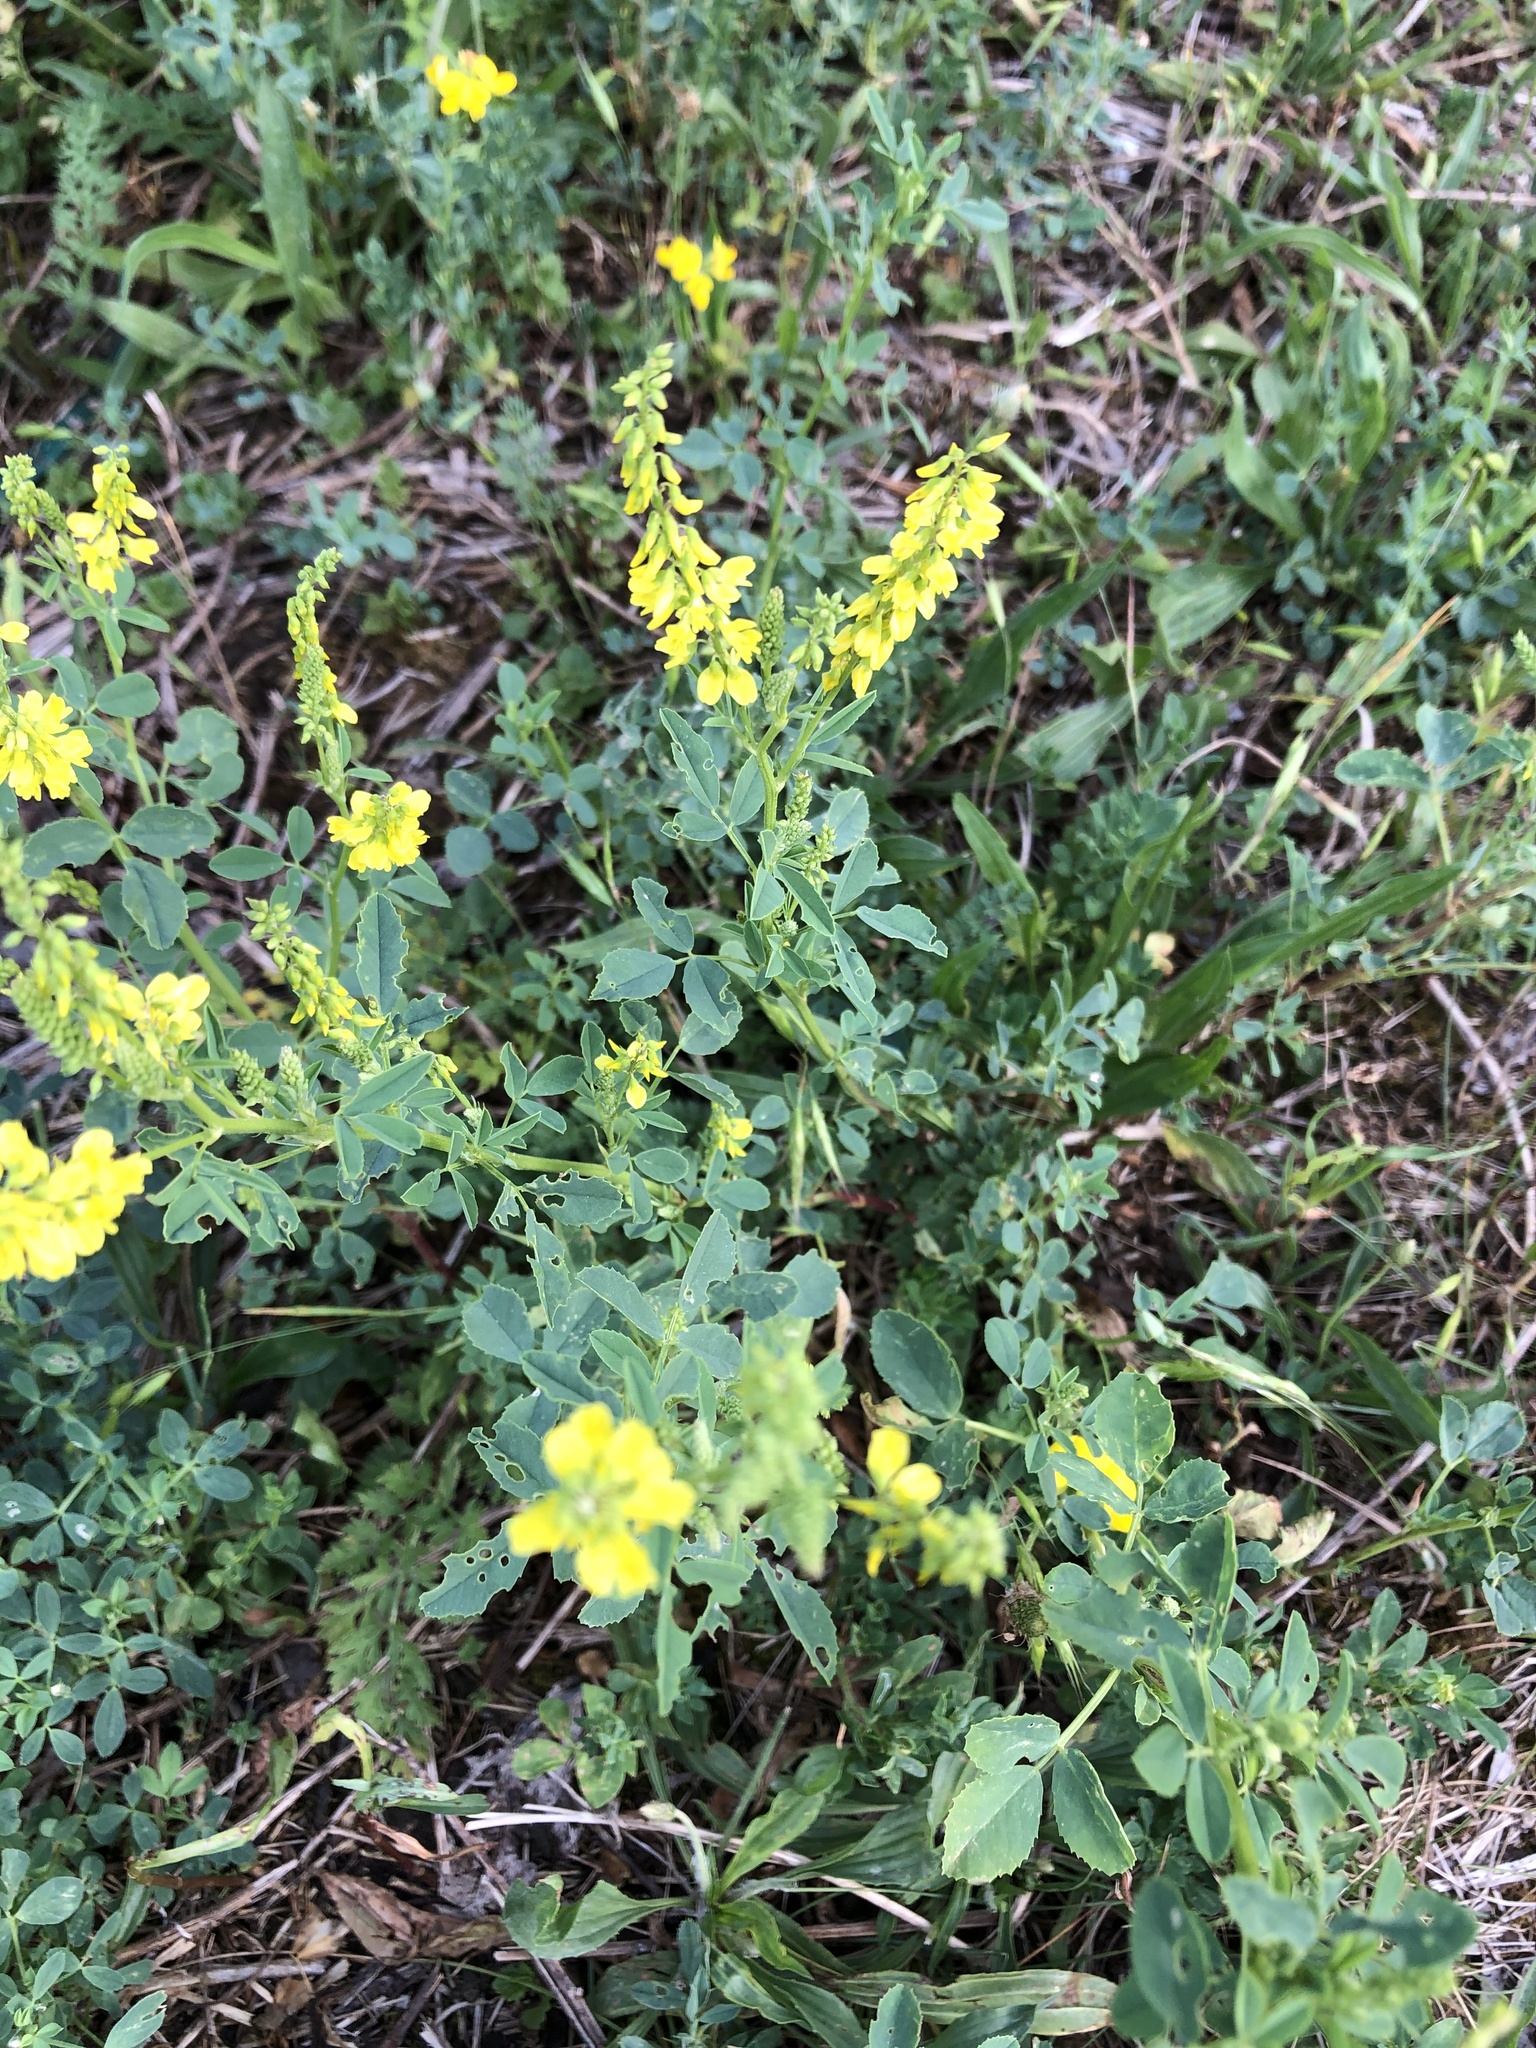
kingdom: Plantae
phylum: Tracheophyta
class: Magnoliopsida
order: Fabales
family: Fabaceae
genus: Melilotus
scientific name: Melilotus officinalis
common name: Sweetclover
